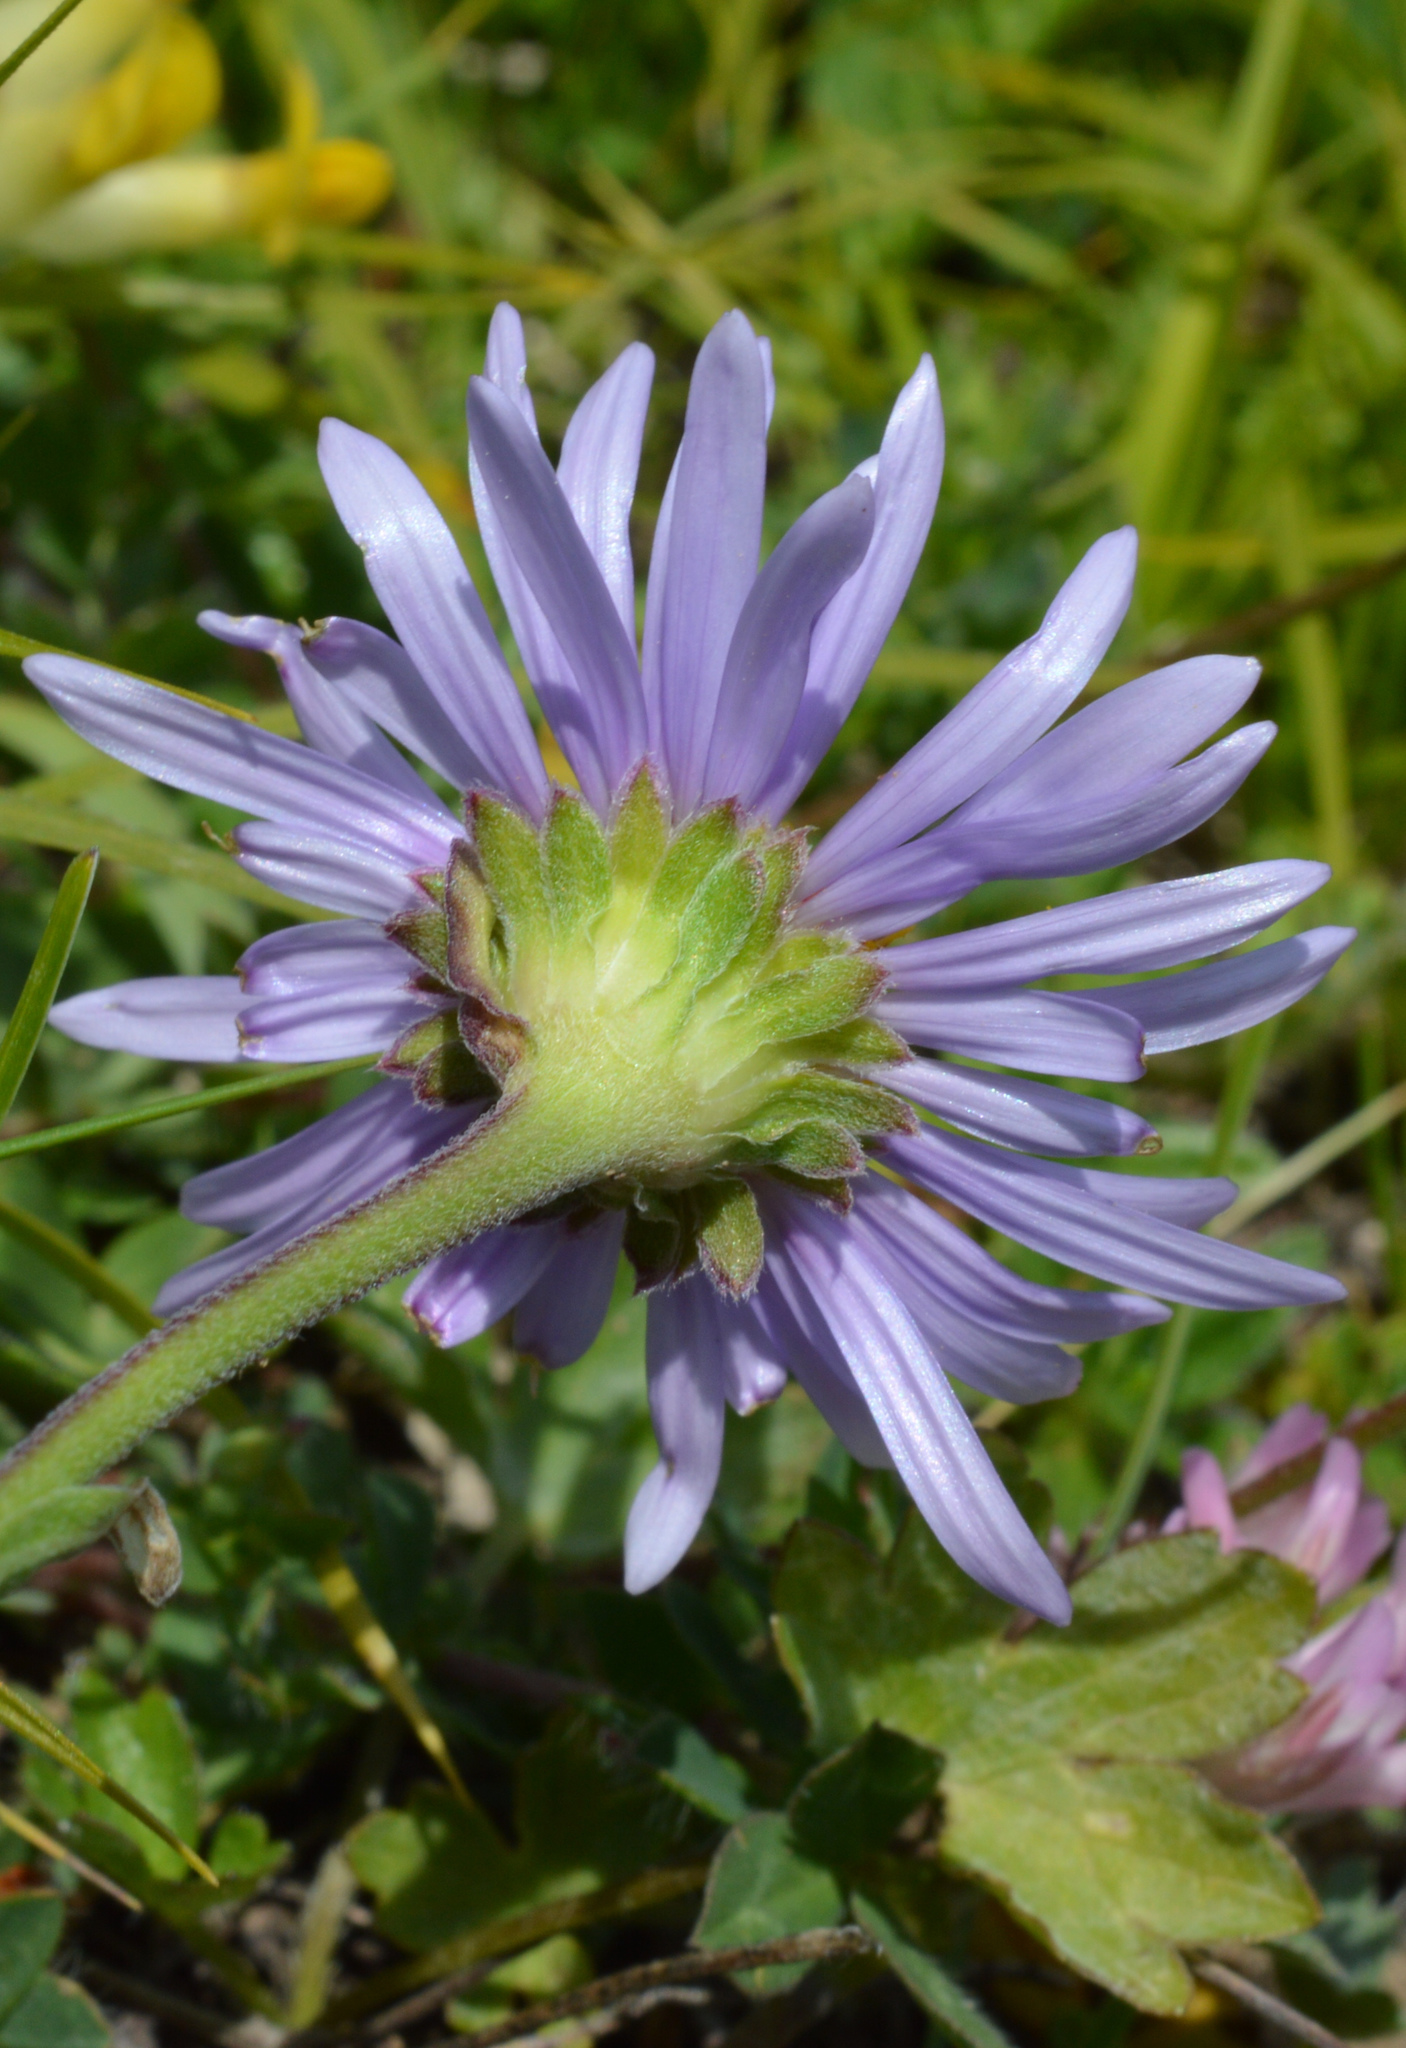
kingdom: Plantae
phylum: Tracheophyta
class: Magnoliopsida
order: Asterales
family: Asteraceae
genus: Aster
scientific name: Aster alpinus
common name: Alpine aster
